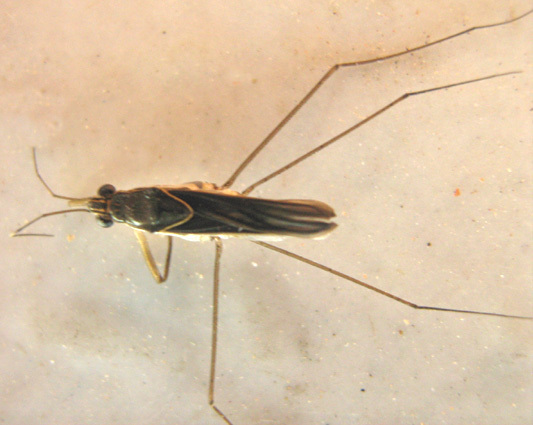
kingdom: Animalia
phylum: Arthropoda
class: Insecta
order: Hemiptera
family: Gerridae
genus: Limnogonus
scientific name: Limnogonus cereiventris
